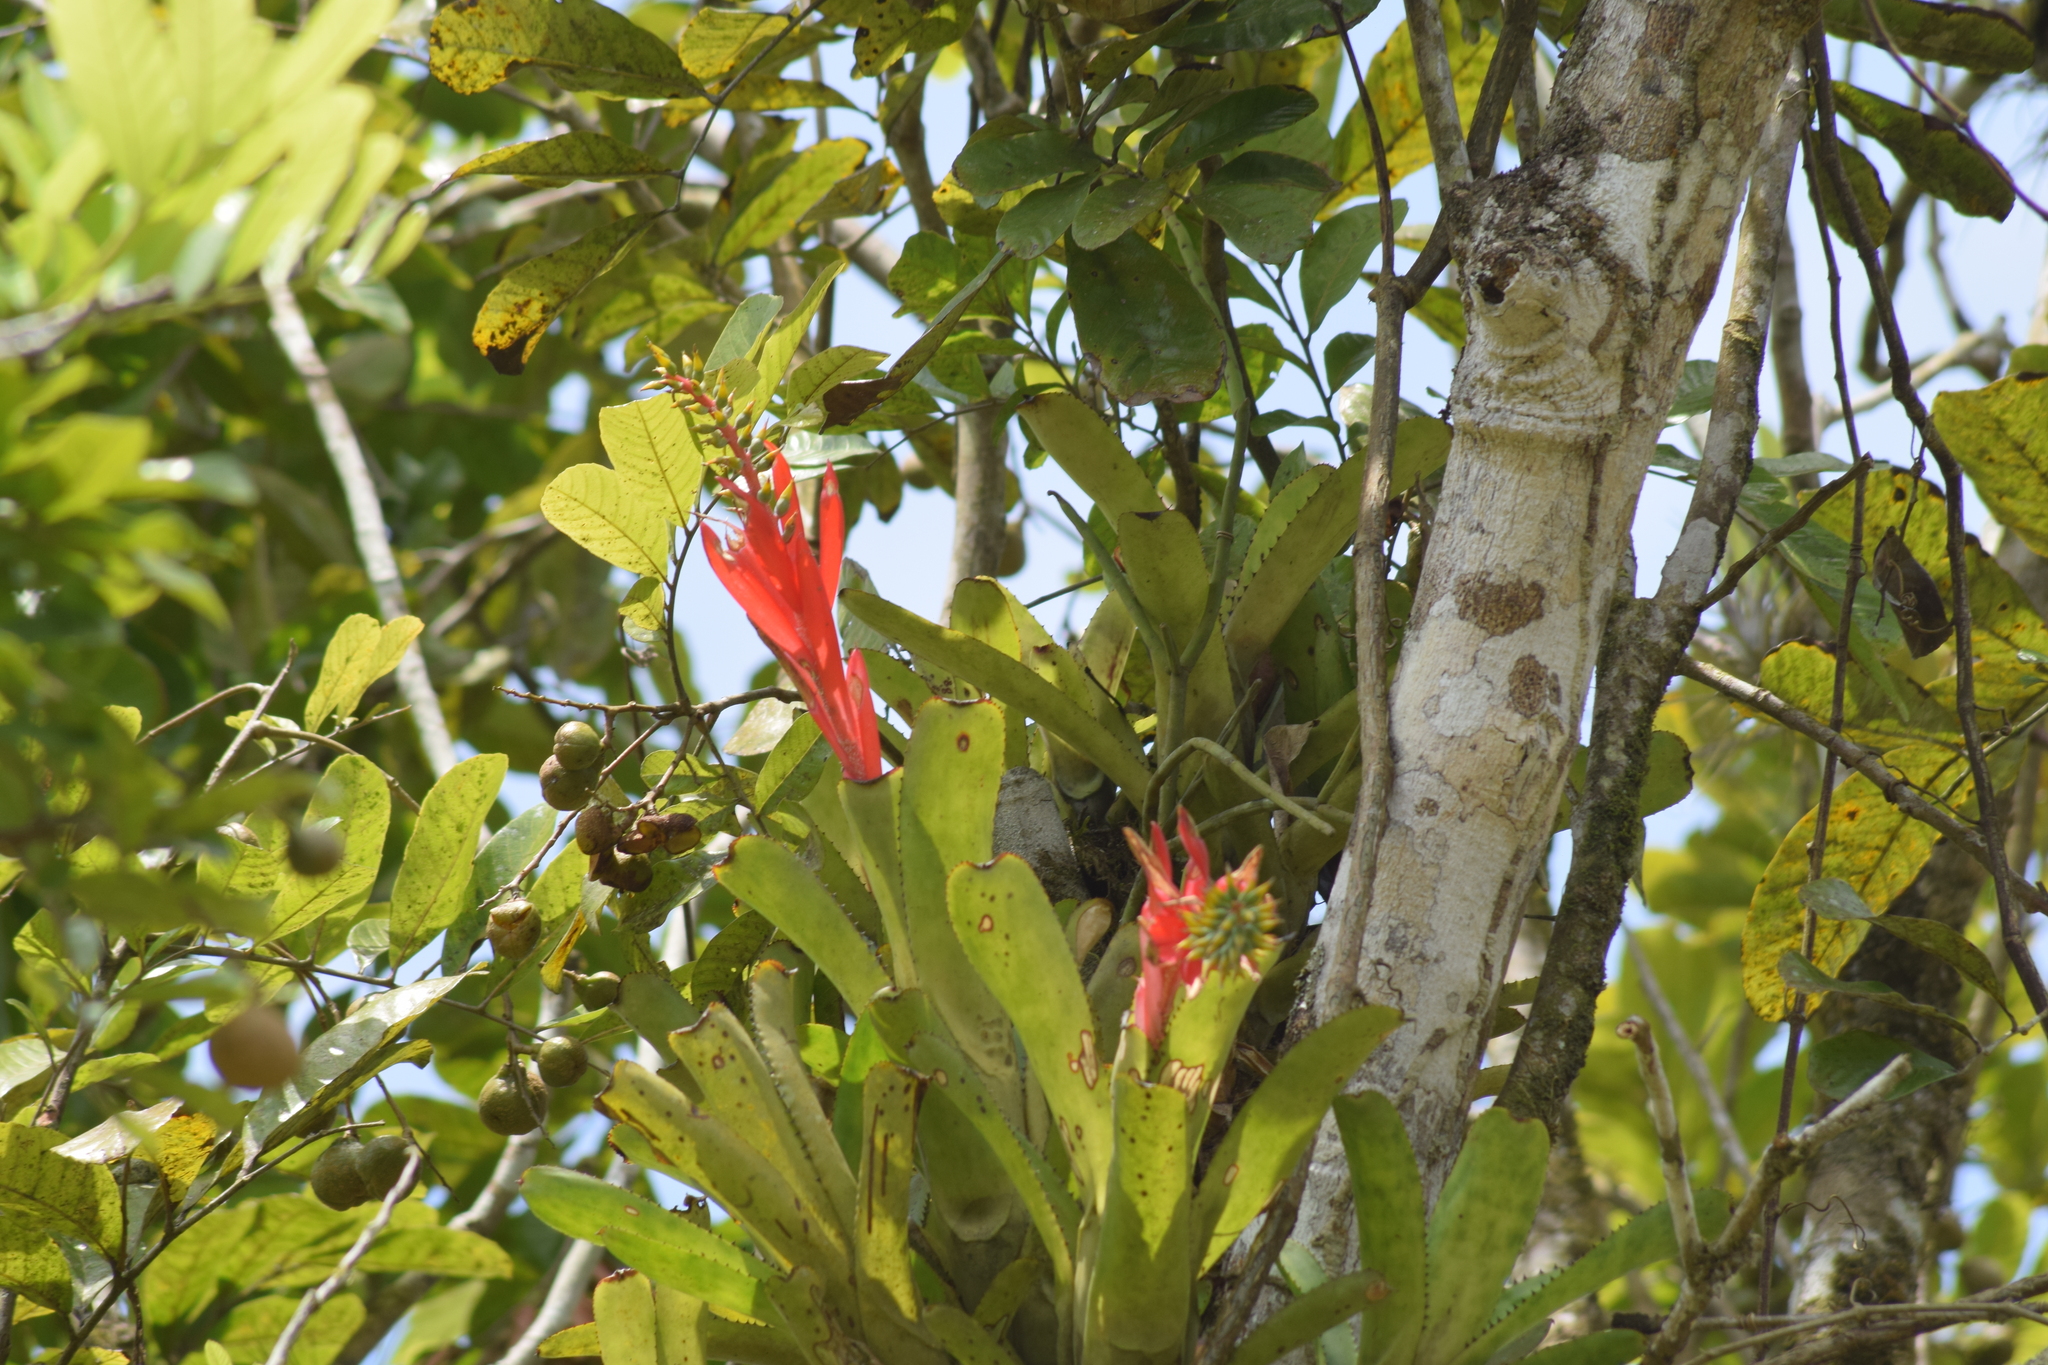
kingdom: Plantae
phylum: Tracheophyta
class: Liliopsida
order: Poales
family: Bromeliaceae
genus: Aechmea
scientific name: Aechmea nudicaulis
